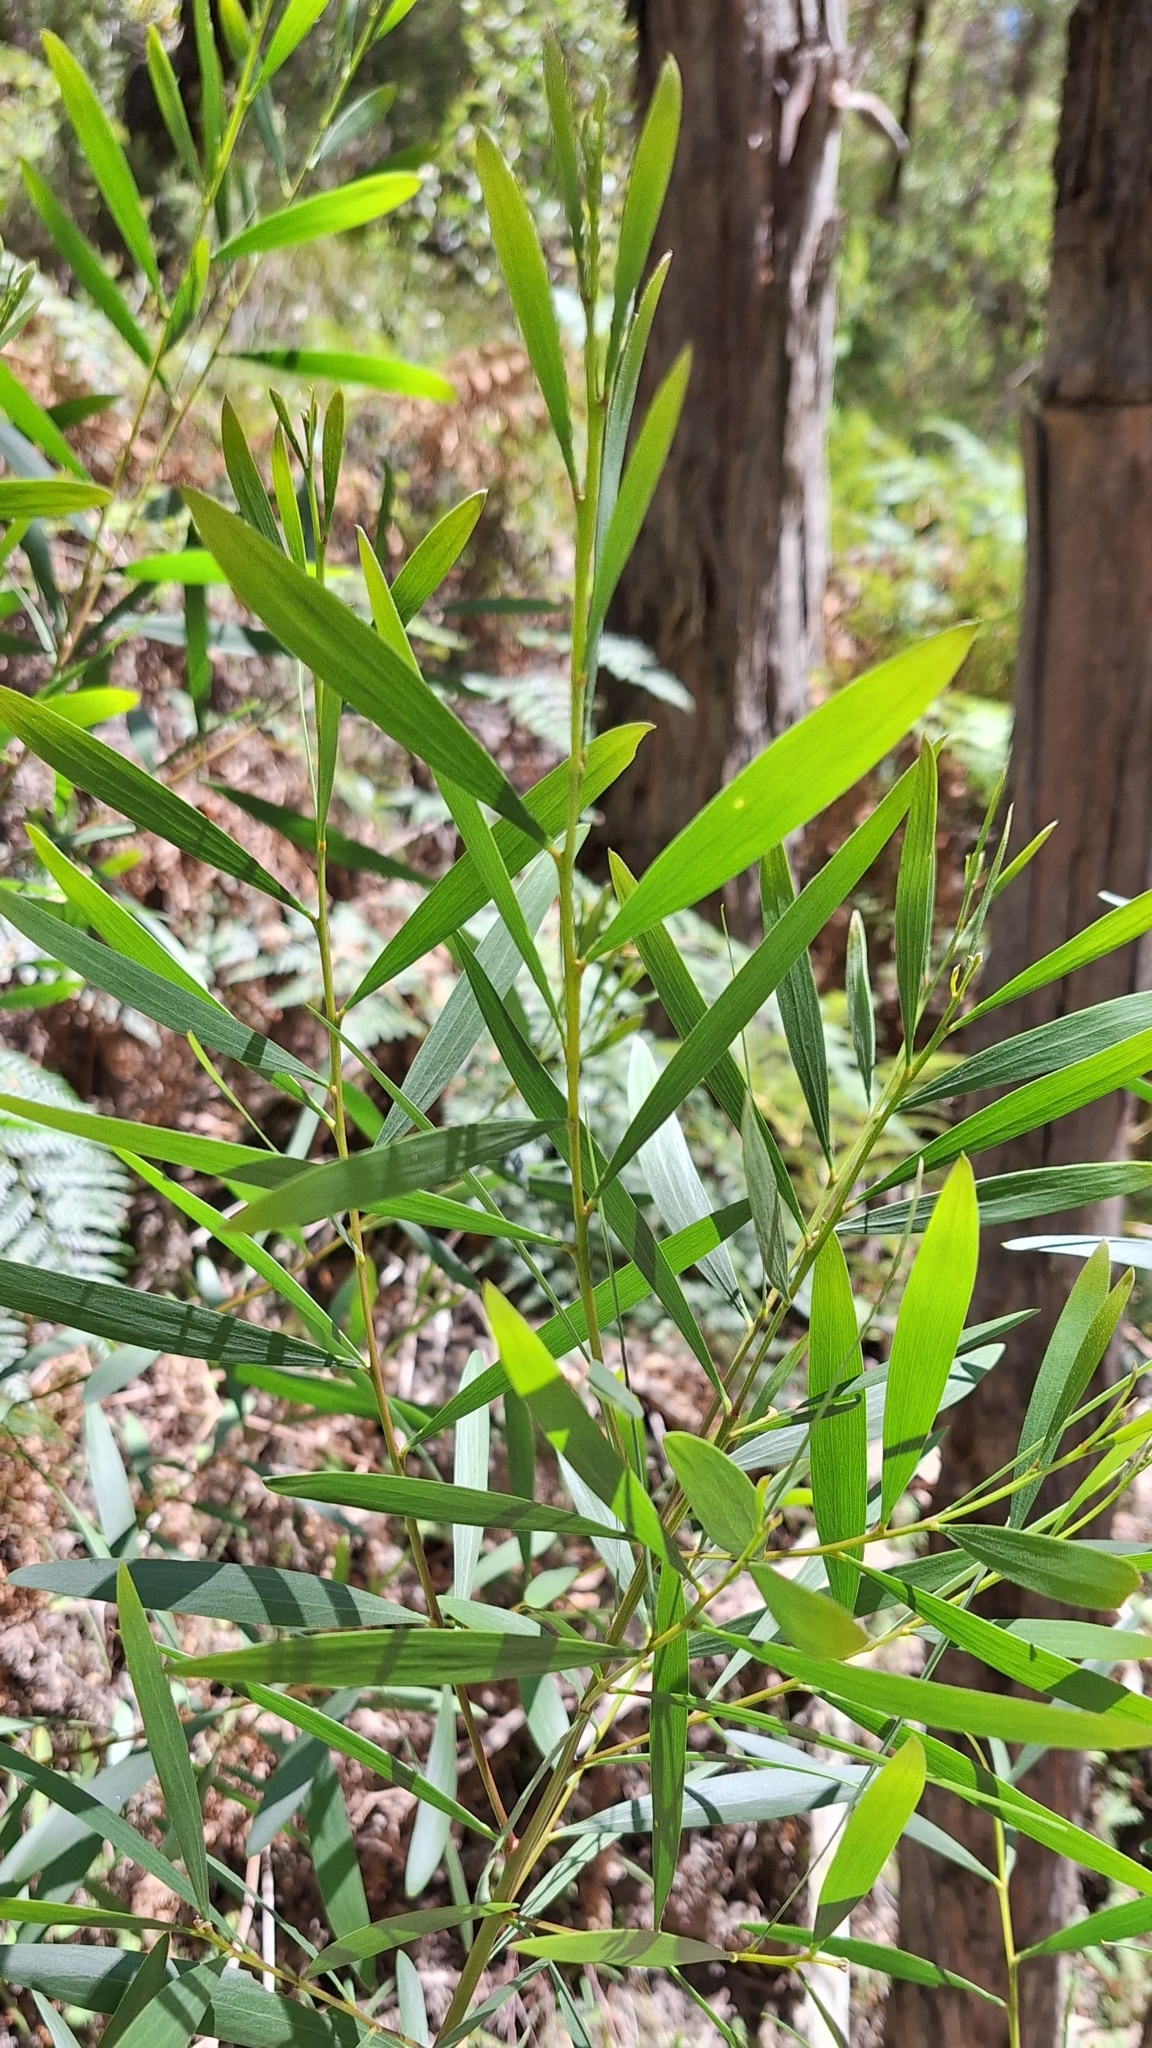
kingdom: Plantae
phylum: Tracheophyta
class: Magnoliopsida
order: Fabales
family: Fabaceae
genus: Acacia
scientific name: Acacia longifolia
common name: Sydney golden wattle
